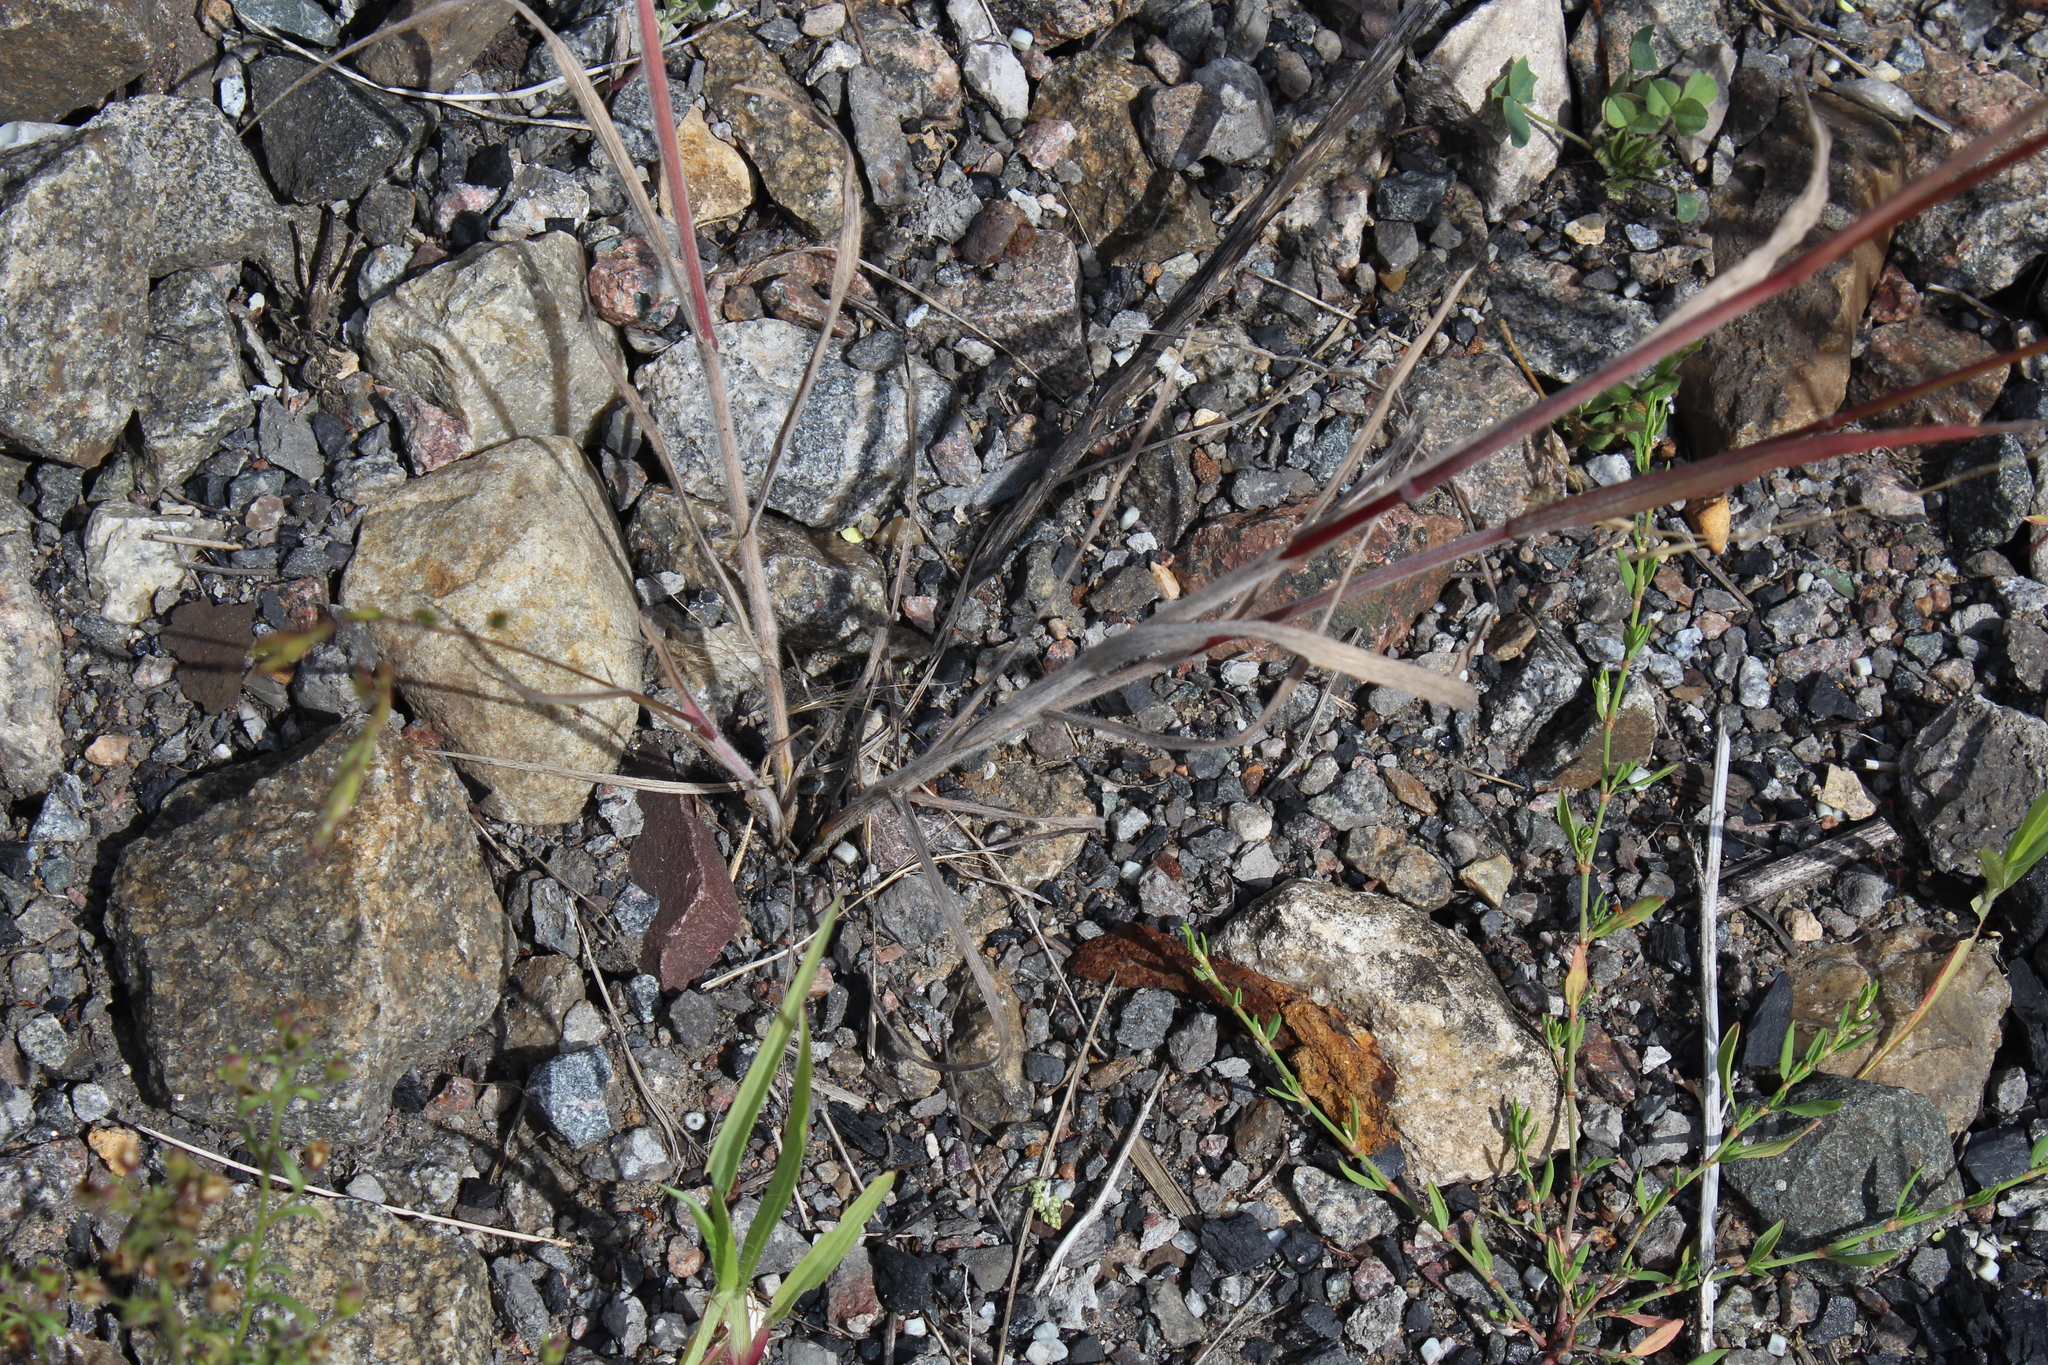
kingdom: Plantae
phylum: Tracheophyta
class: Liliopsida
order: Poales
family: Poaceae
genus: Bromus
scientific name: Bromus arvensis
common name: Field brome
